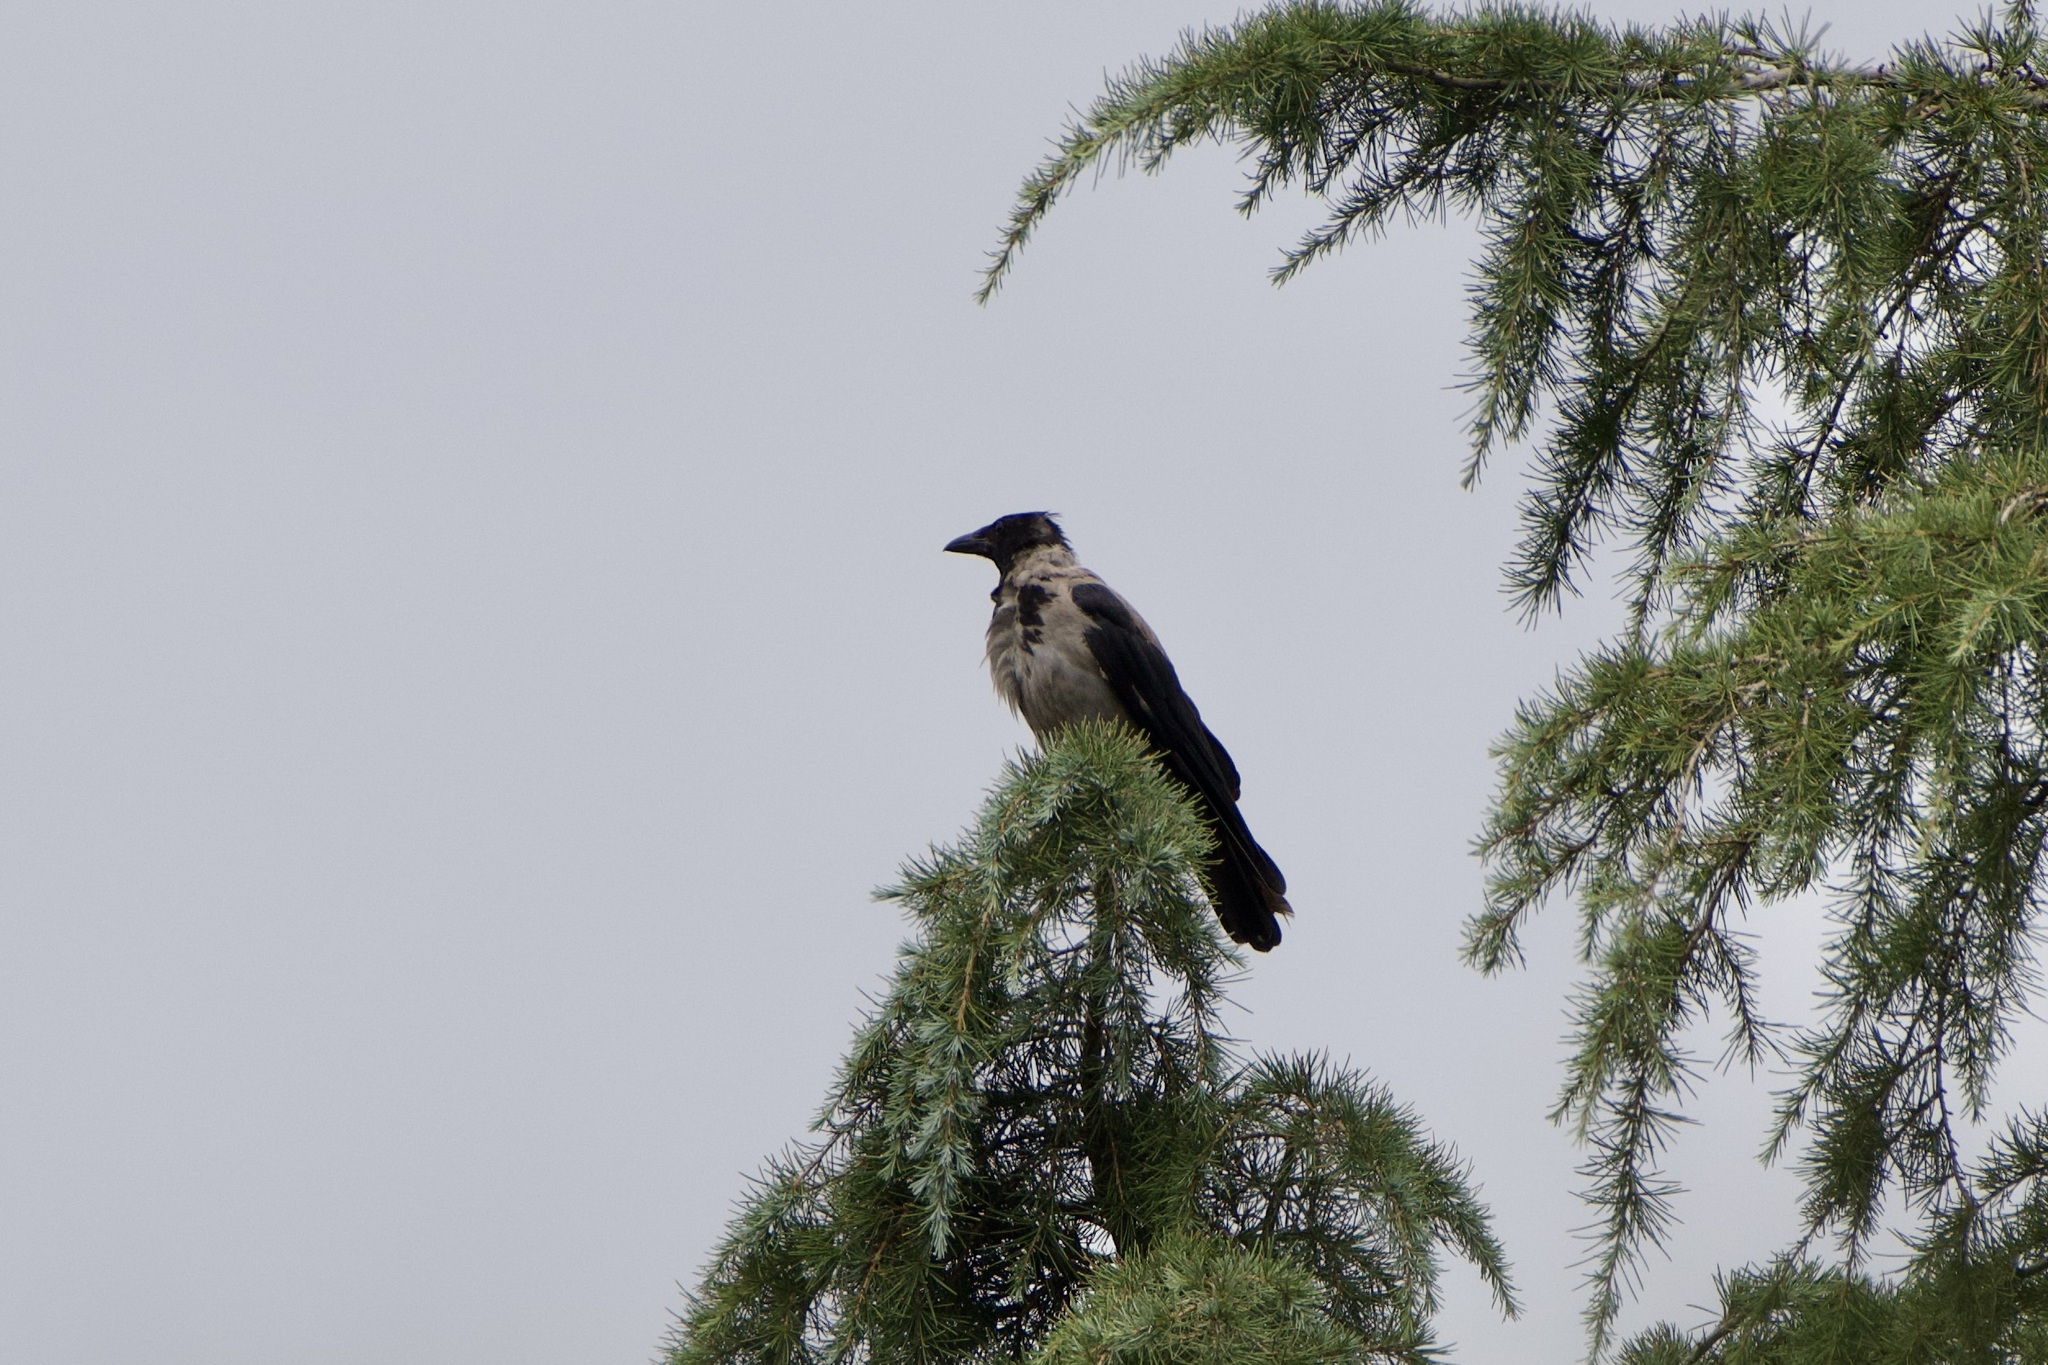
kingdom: Animalia
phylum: Chordata
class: Aves
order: Passeriformes
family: Corvidae
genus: Corvus
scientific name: Corvus cornix
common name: Hooded crow
